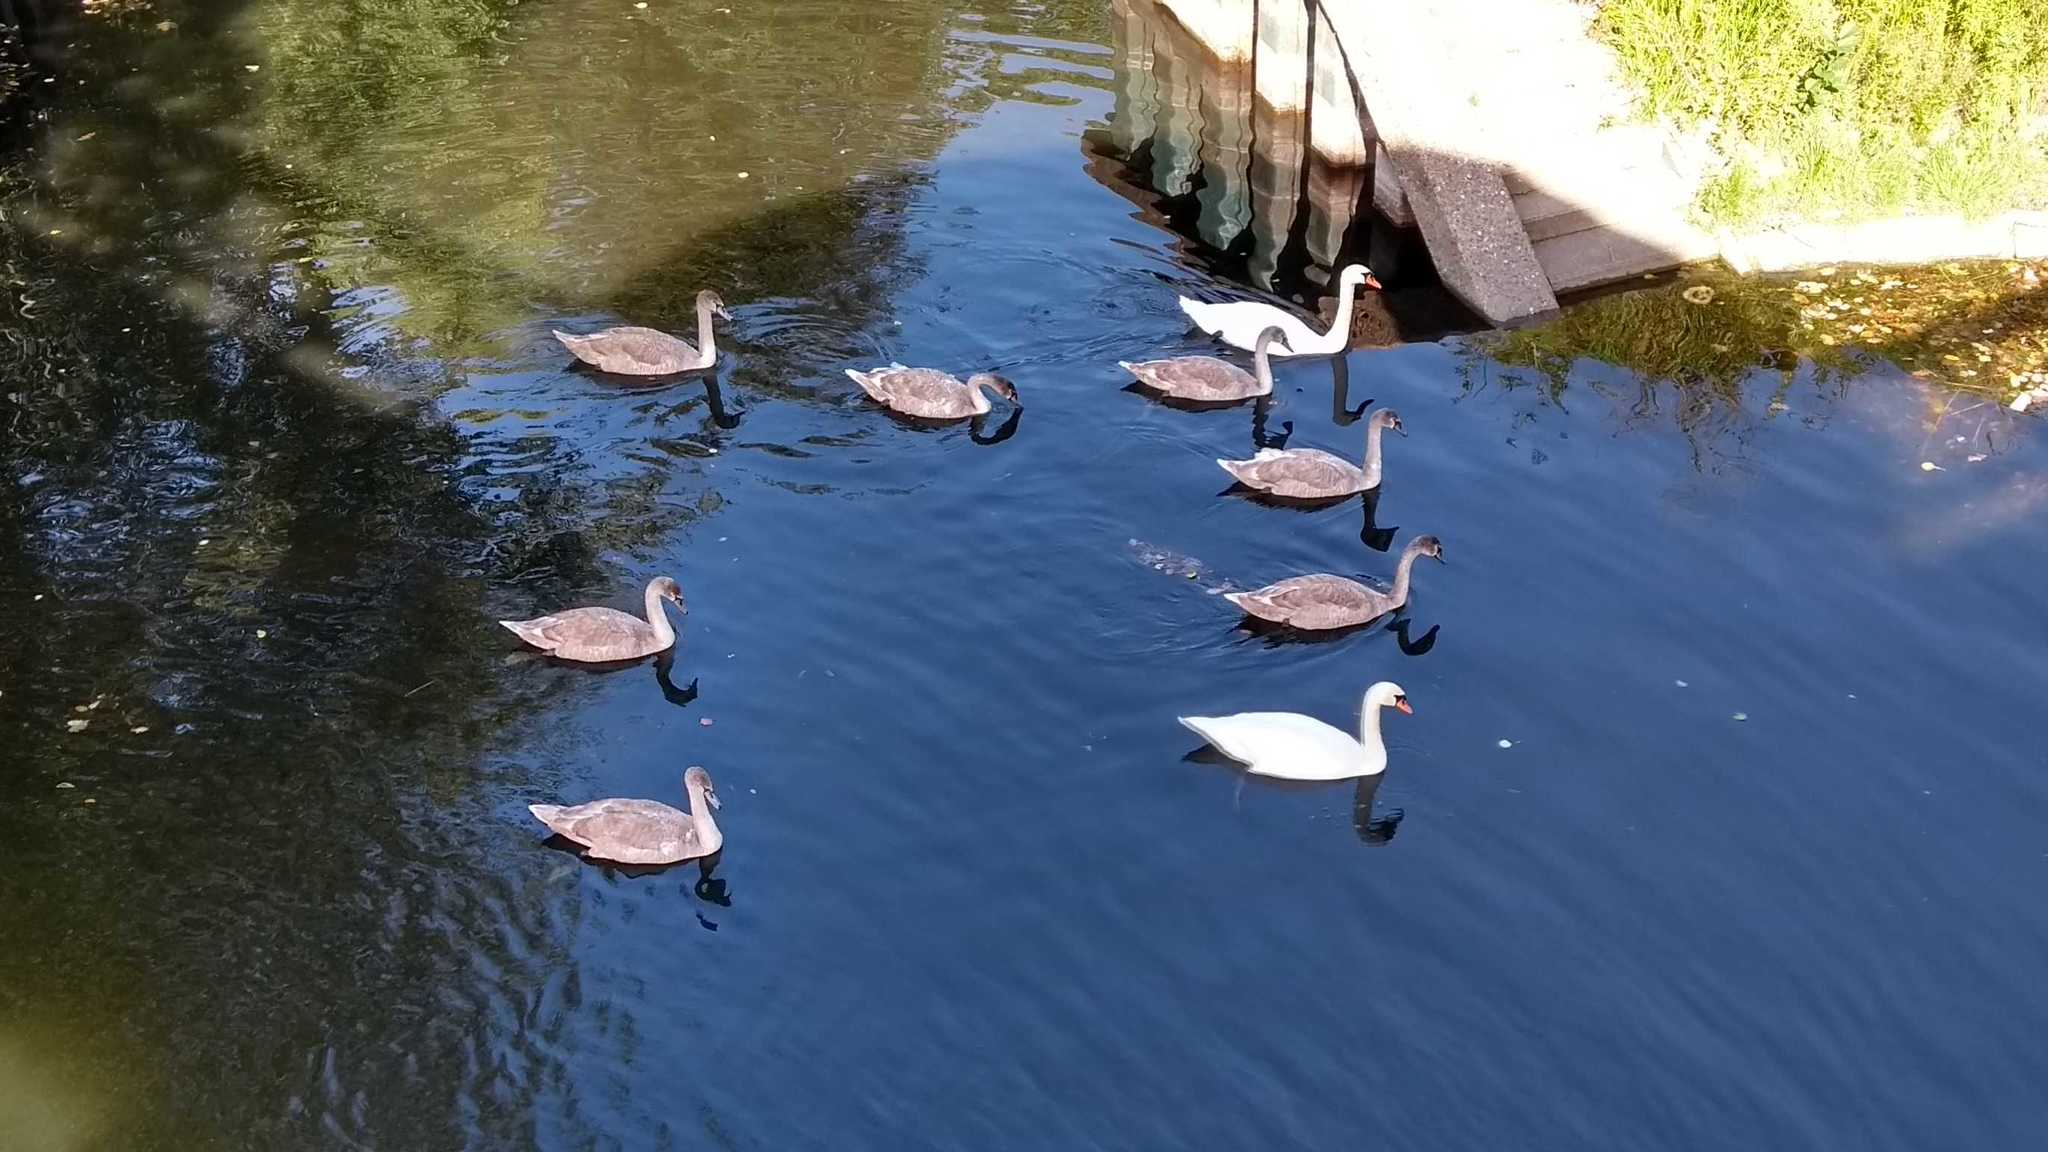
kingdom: Animalia
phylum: Chordata
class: Aves
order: Anseriformes
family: Anatidae
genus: Cygnus
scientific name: Cygnus olor
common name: Mute swan
